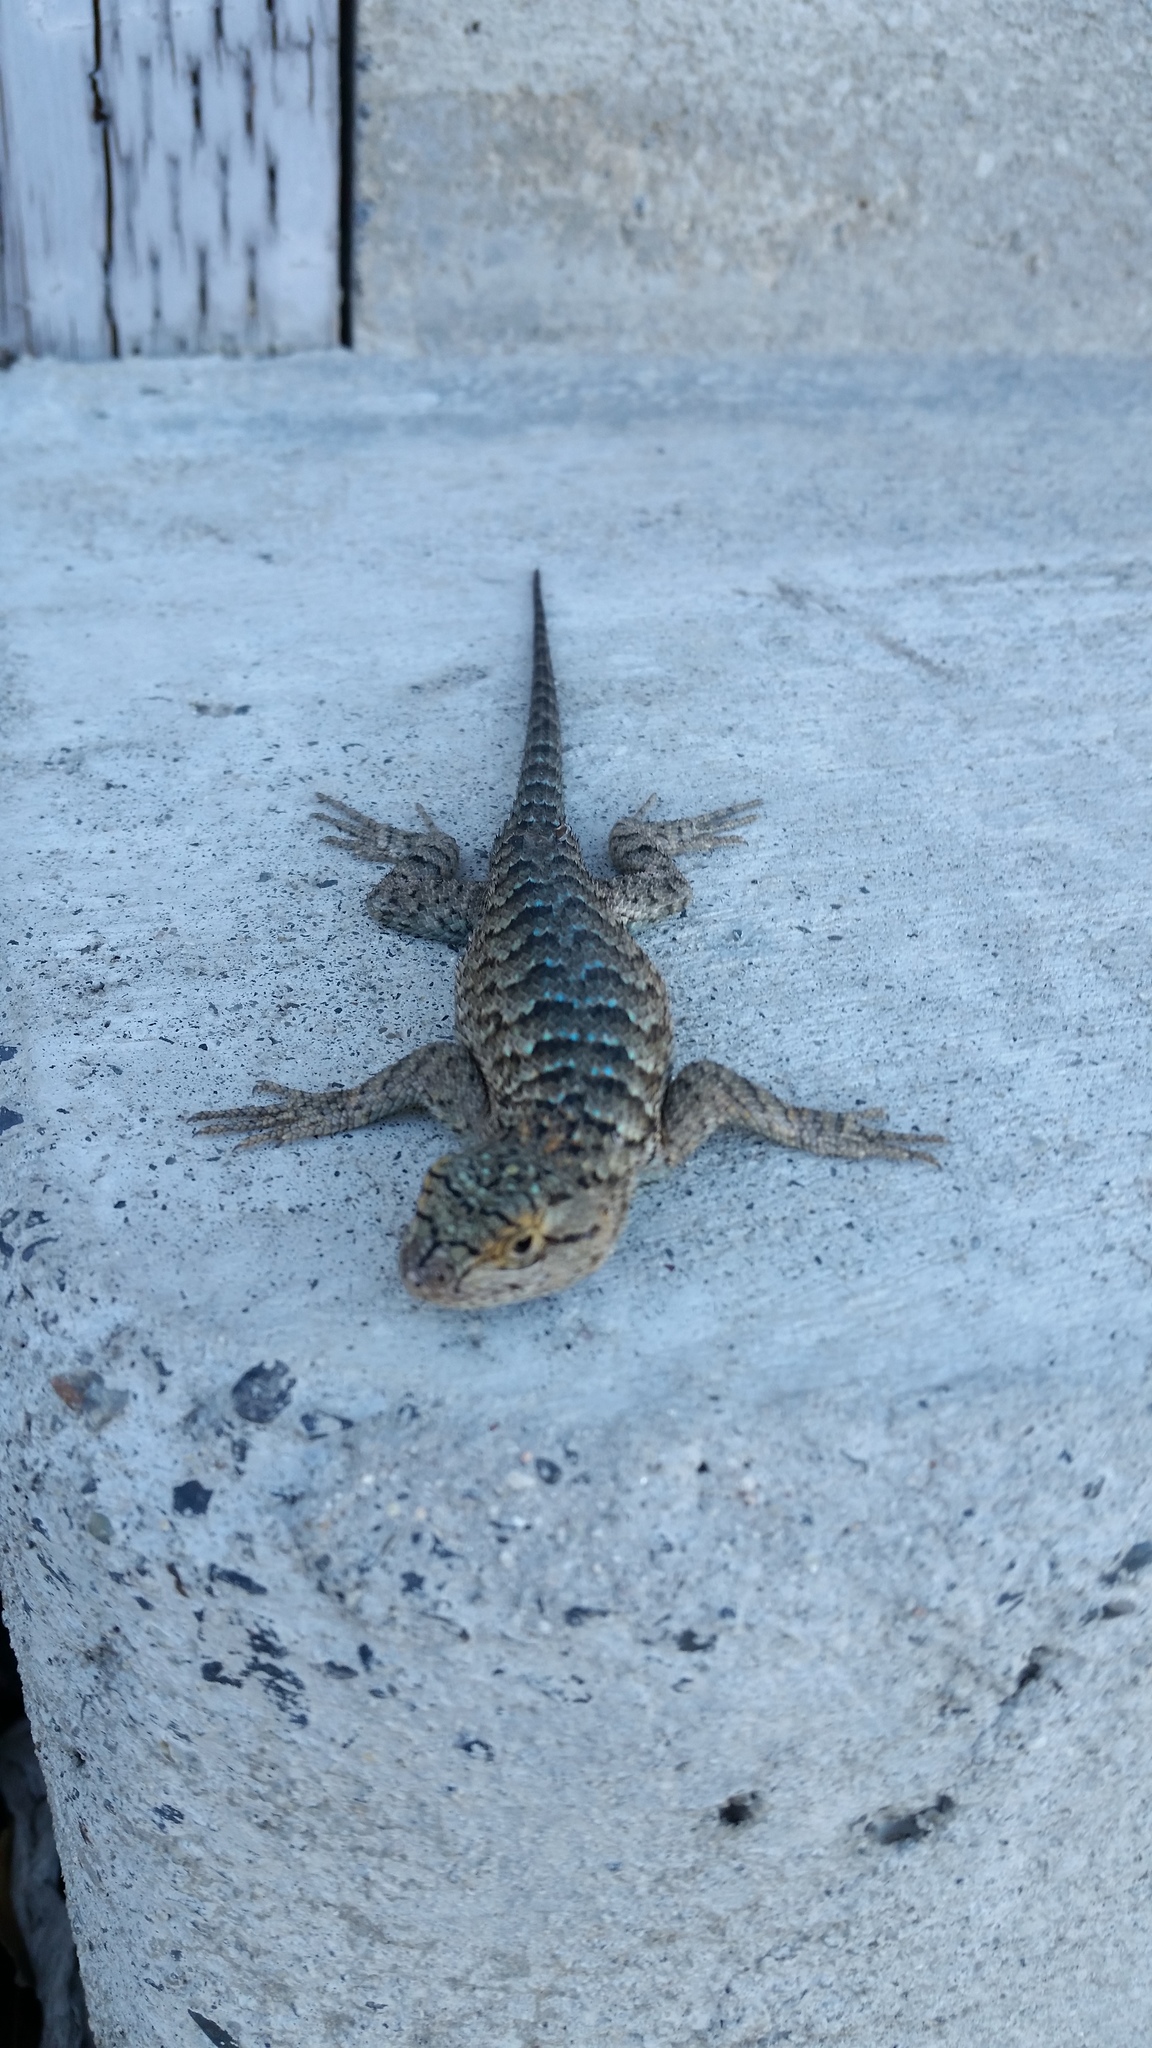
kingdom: Animalia
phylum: Chordata
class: Squamata
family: Phrynosomatidae
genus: Sceloporus
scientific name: Sceloporus occidentalis
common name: Western fence lizard
